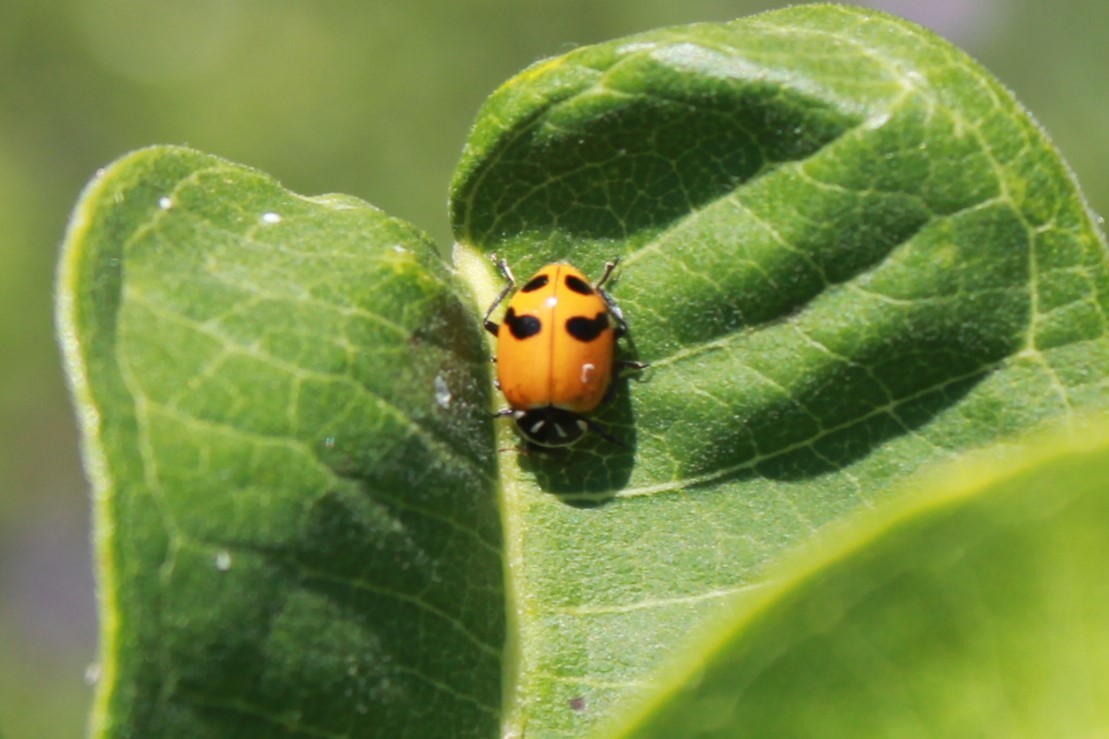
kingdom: Animalia
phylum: Arthropoda
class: Insecta
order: Coleoptera
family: Coccinellidae
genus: Hippodamia
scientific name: Hippodamia glacialis
